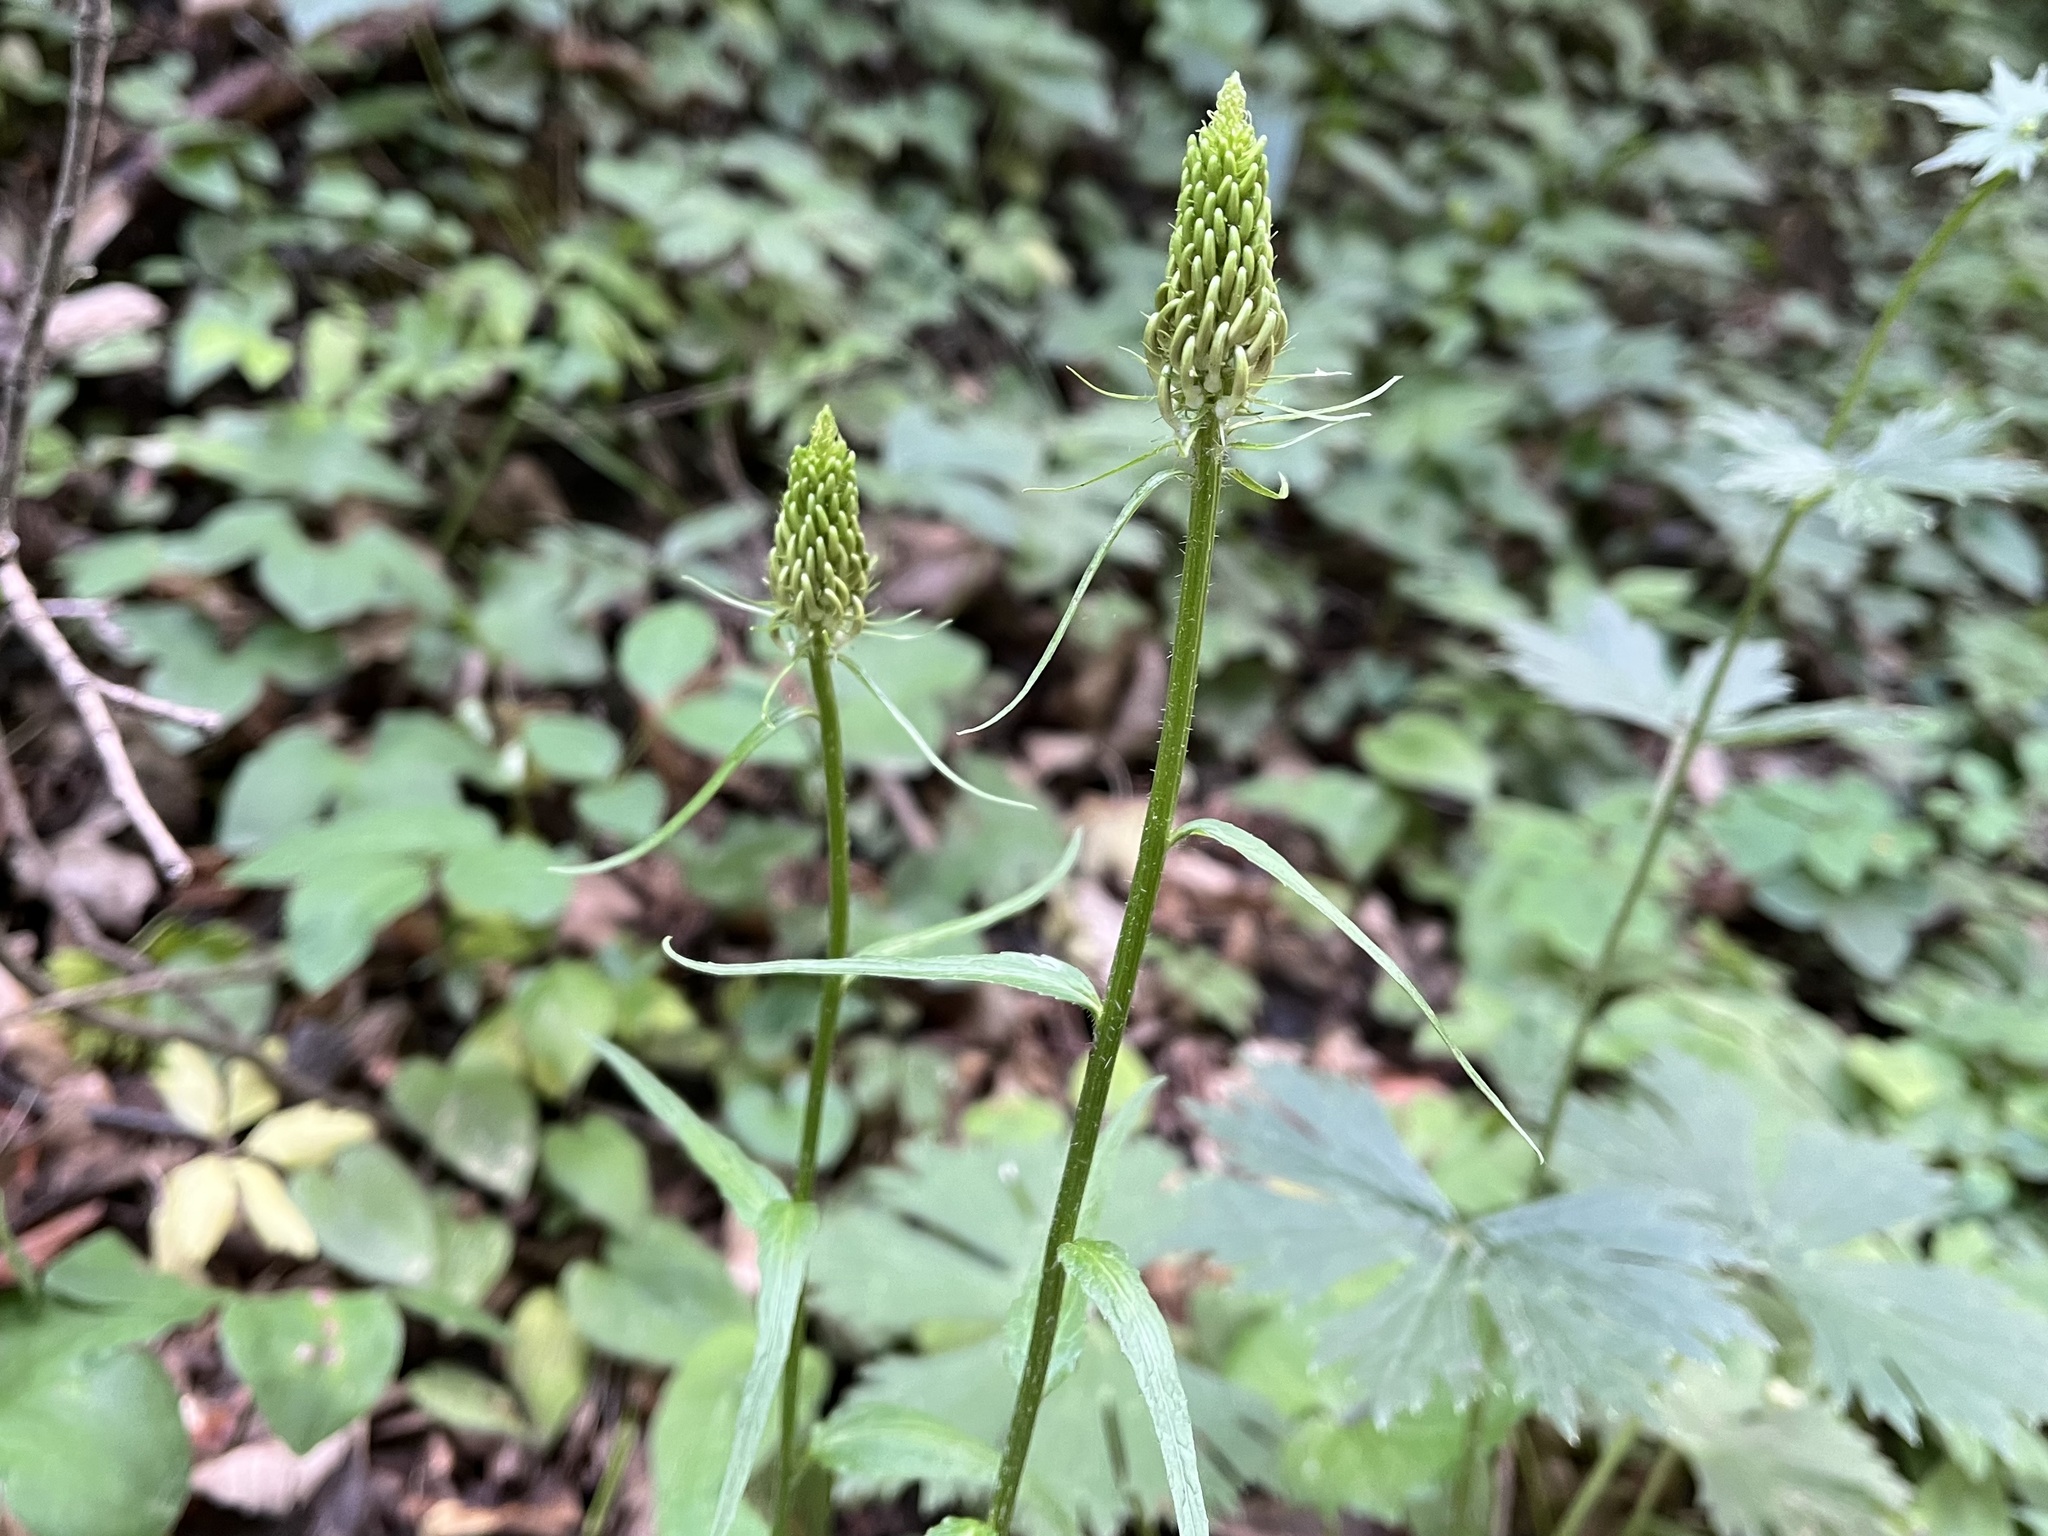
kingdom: Plantae
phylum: Tracheophyta
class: Magnoliopsida
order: Asterales
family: Campanulaceae
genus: Phyteuma
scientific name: Phyteuma spicatum
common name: Spiked rampion
